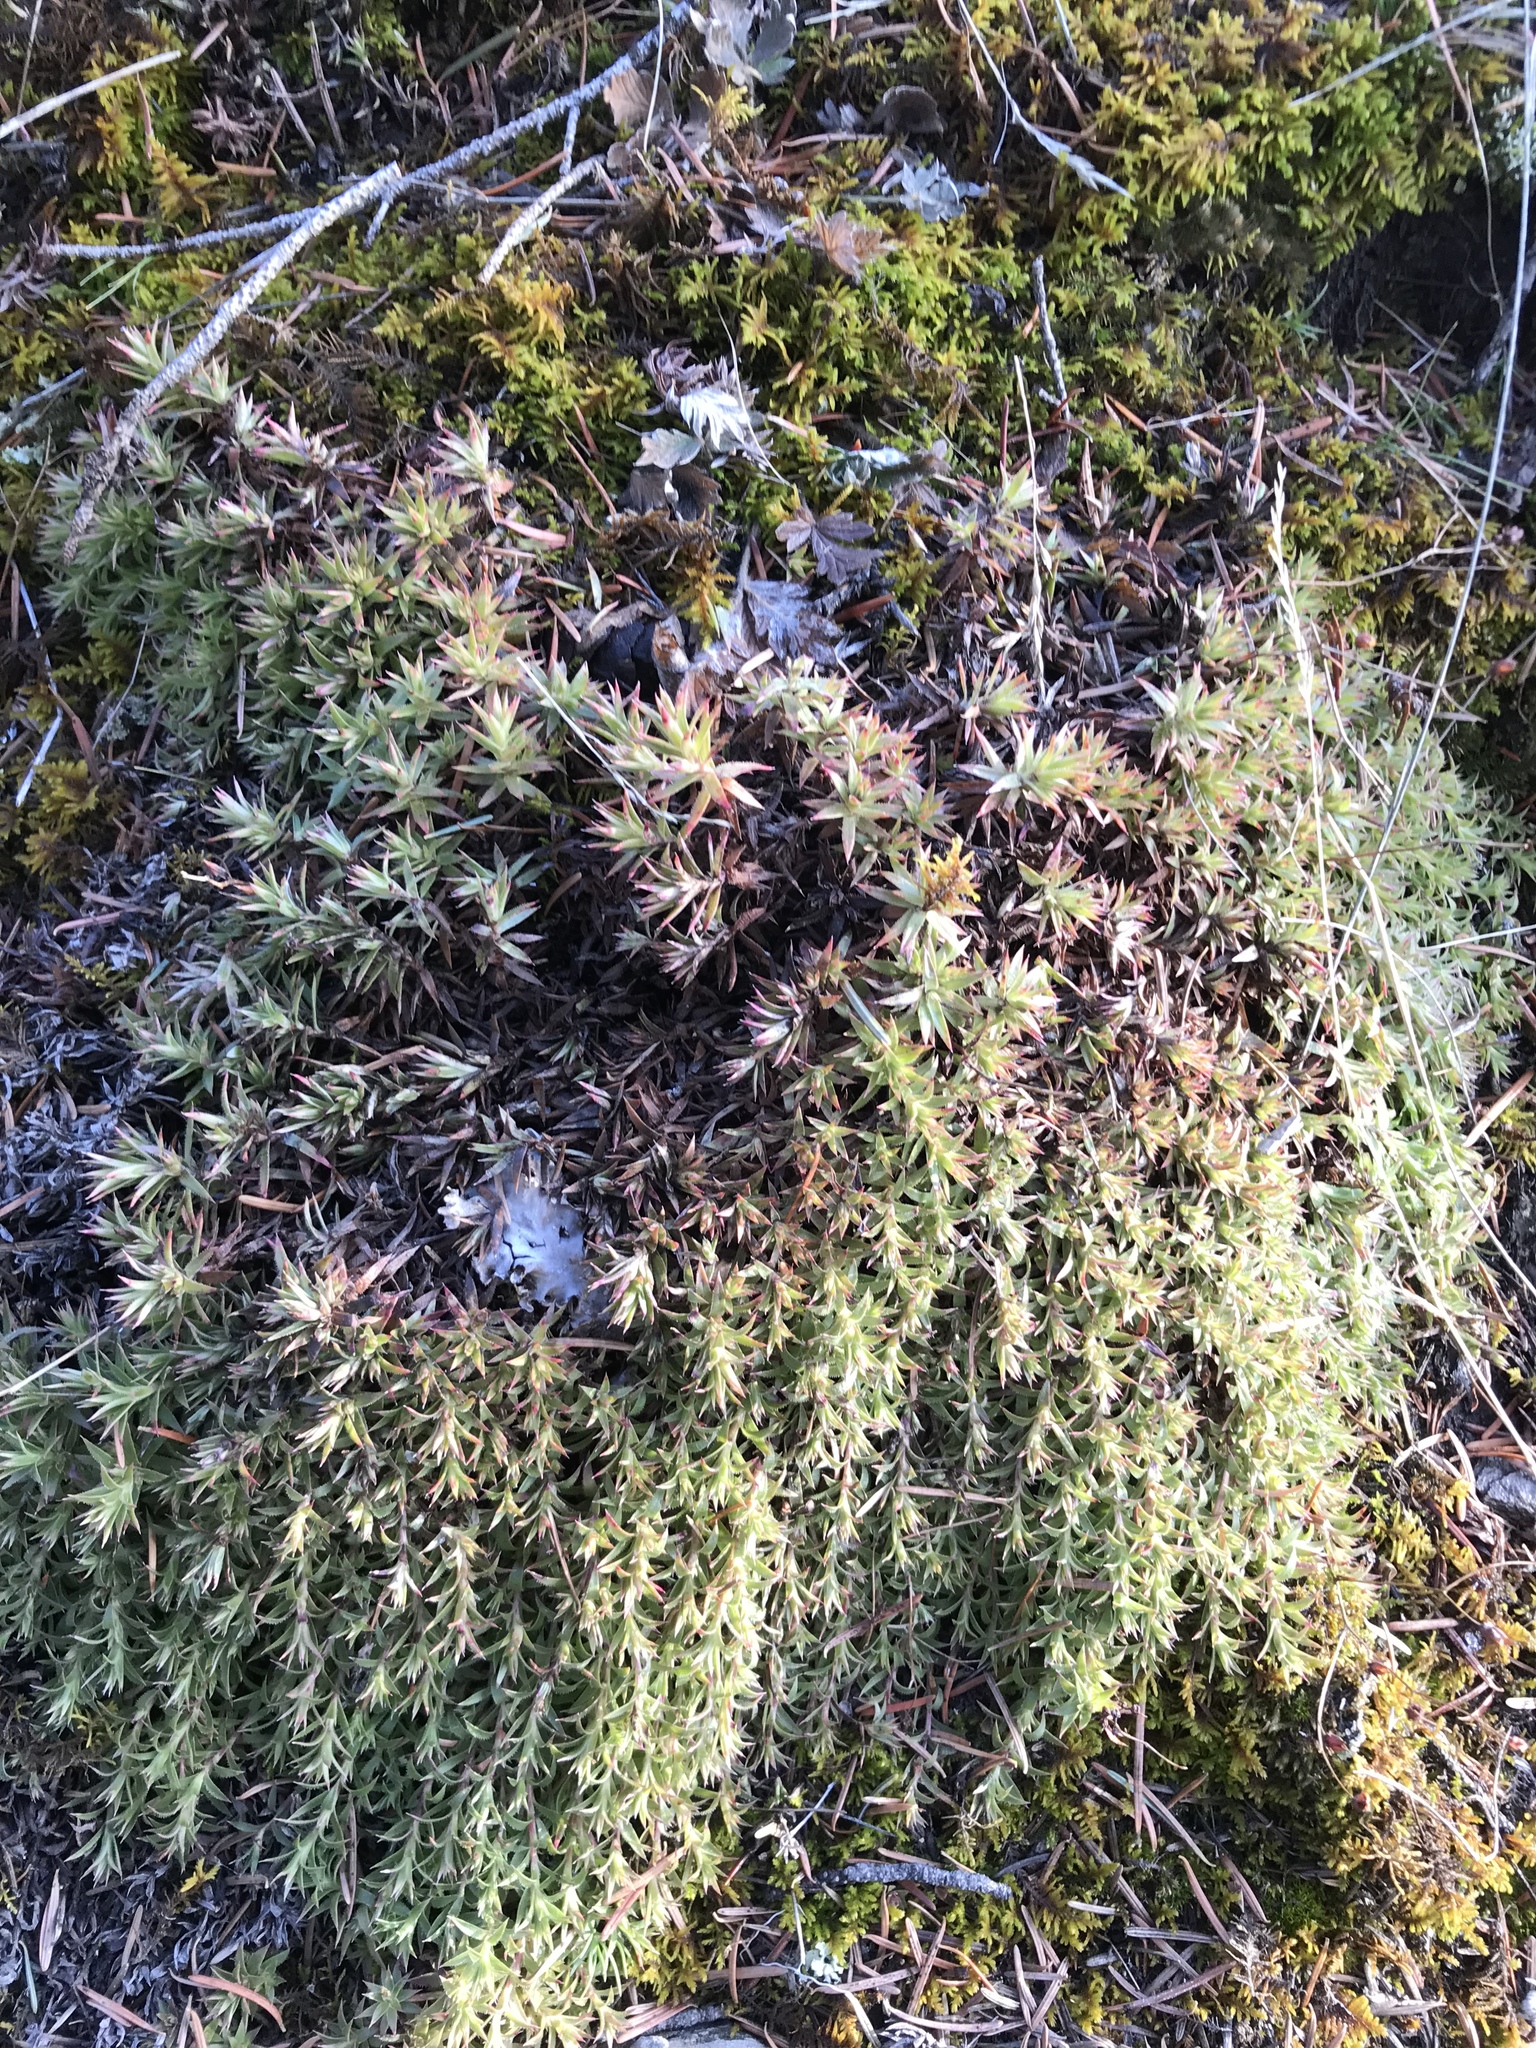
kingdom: Plantae
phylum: Tracheophyta
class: Magnoliopsida
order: Saxifragales
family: Saxifragaceae
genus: Saxifraga
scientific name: Saxifraga bronchialis
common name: Matted saxifrage
